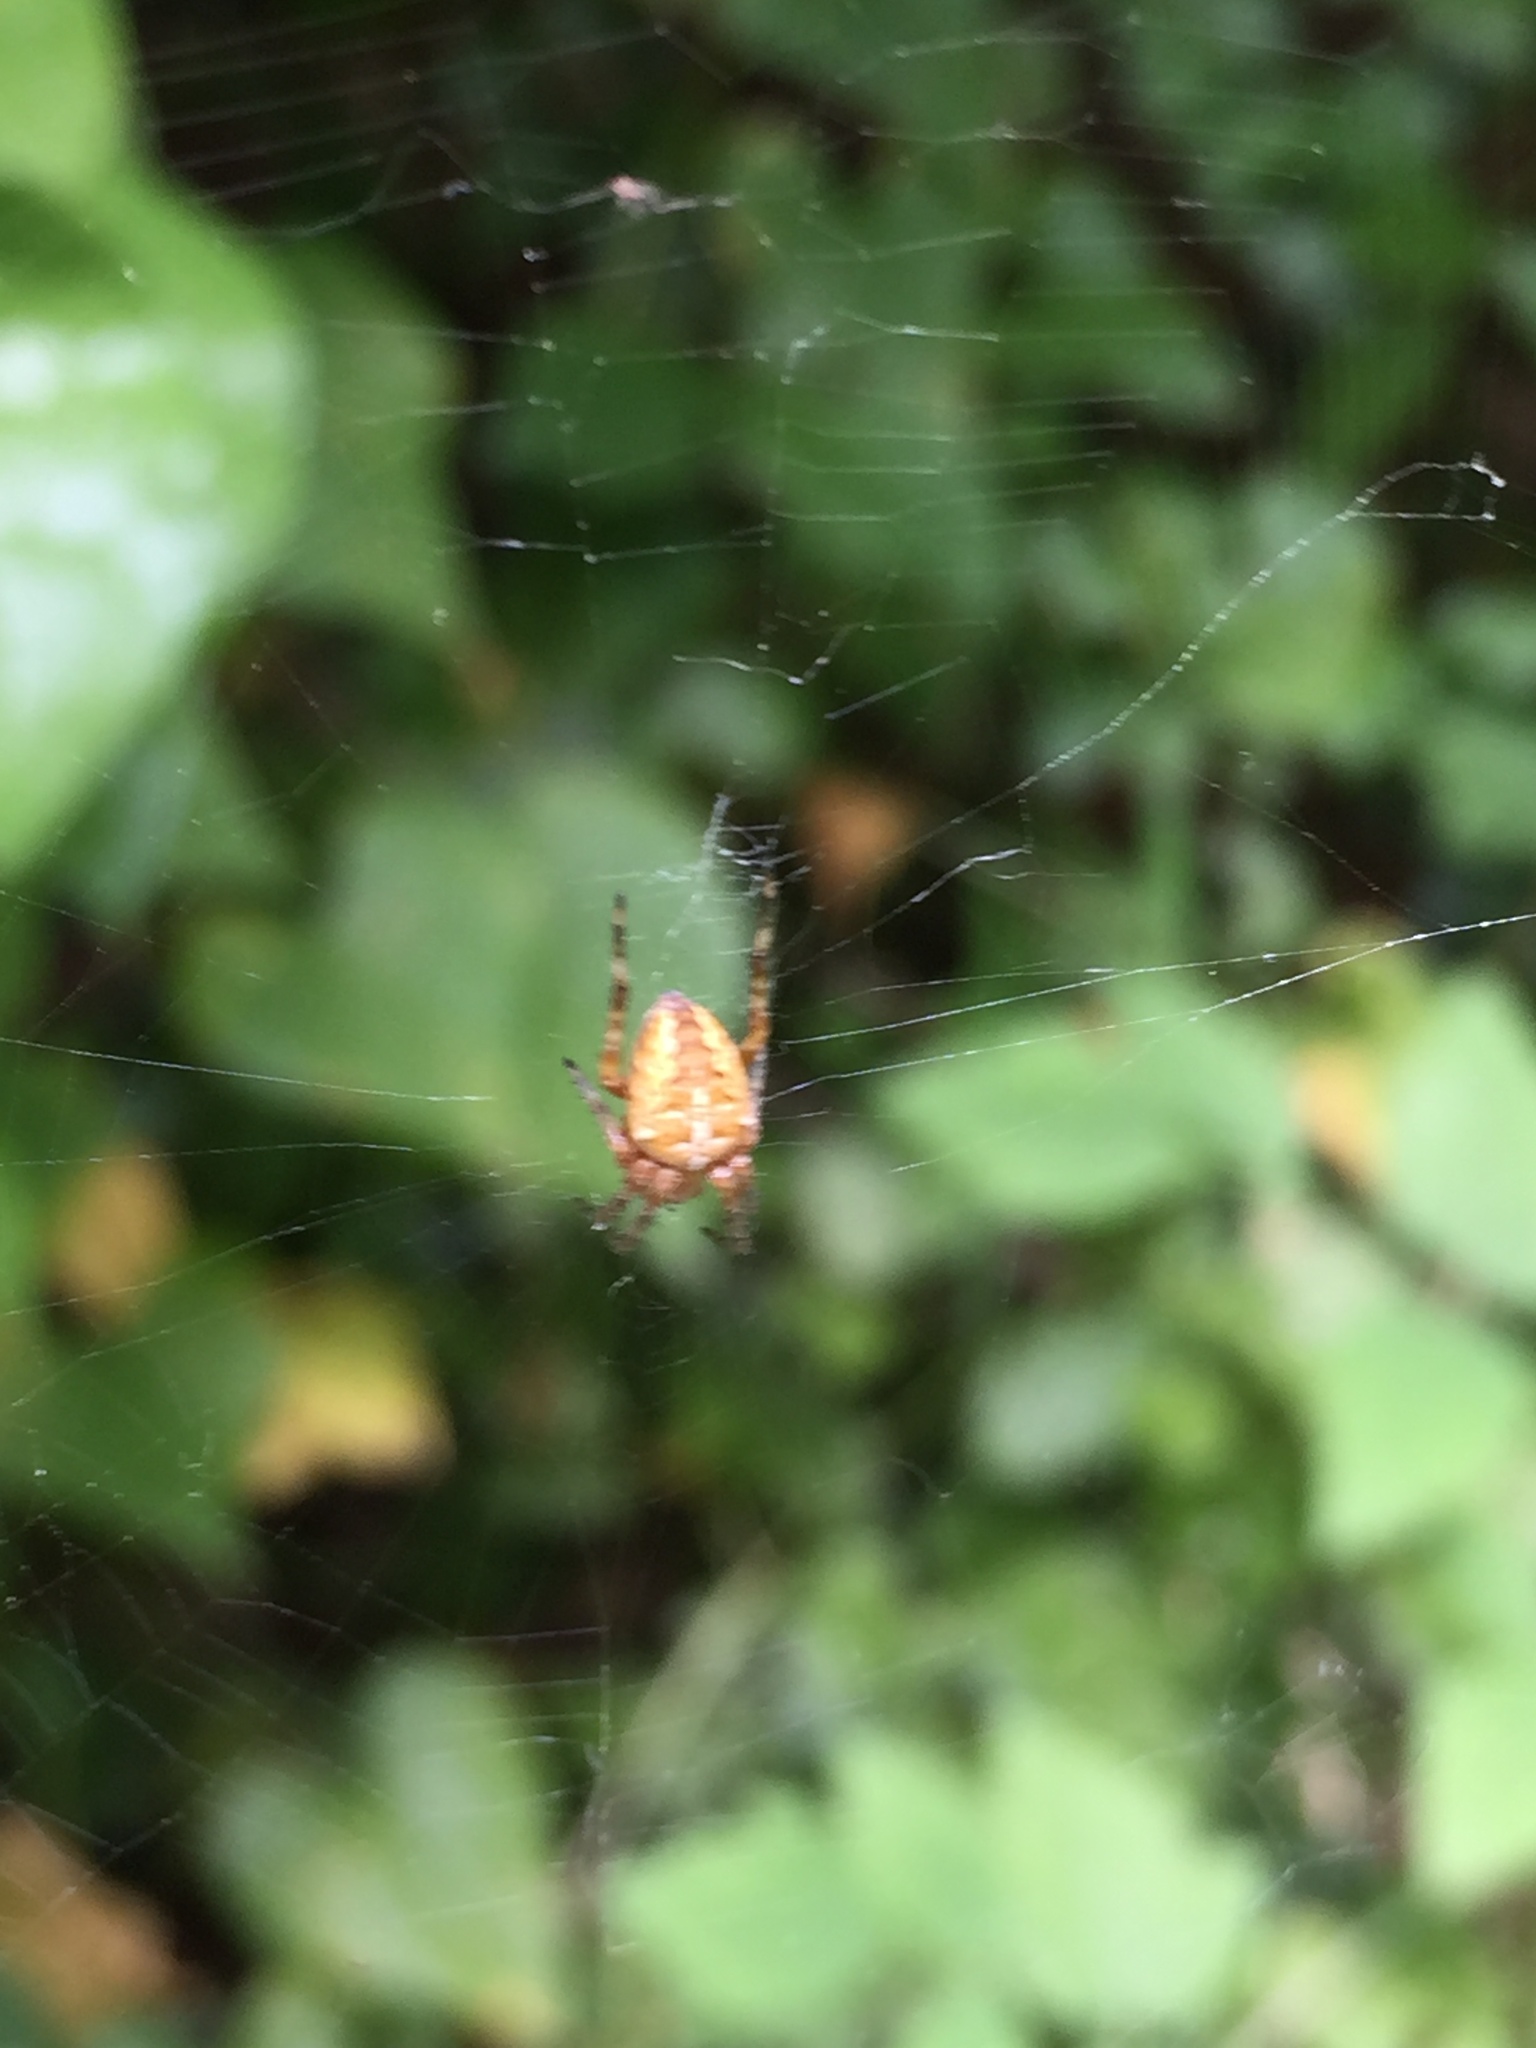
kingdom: Animalia
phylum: Arthropoda
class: Arachnida
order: Araneae
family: Araneidae
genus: Araneus
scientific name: Araneus diadematus
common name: Cross orbweaver
